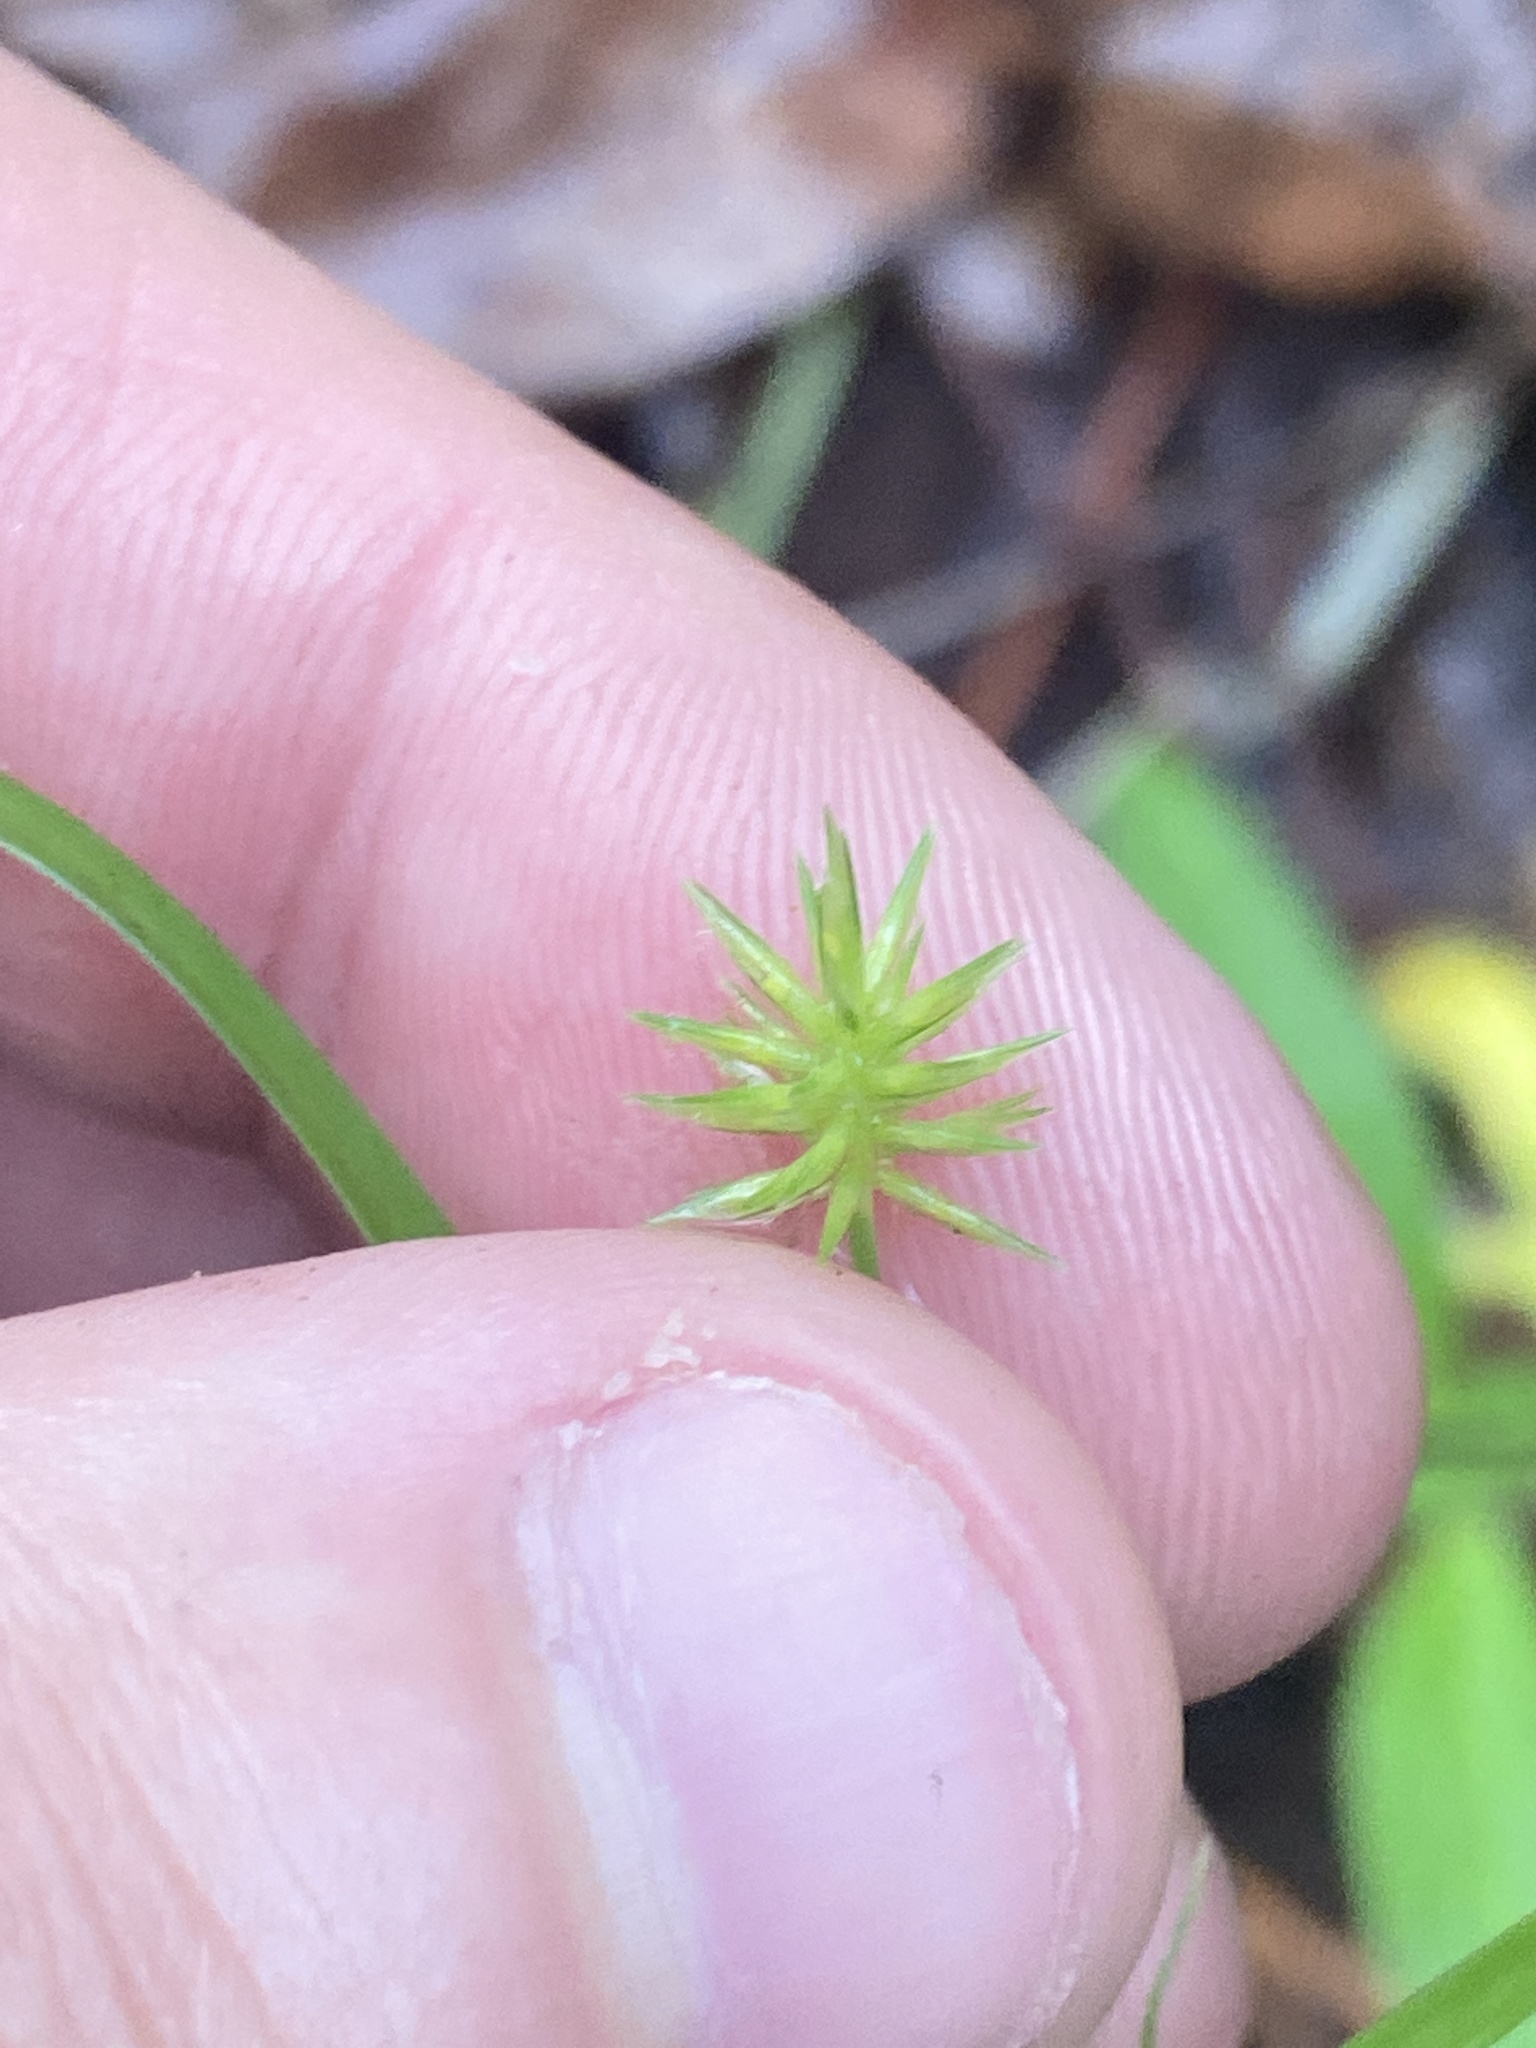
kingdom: Plantae
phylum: Tracheophyta
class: Liliopsida
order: Poales
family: Cyperaceae
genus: Cyperus
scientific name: Cyperus croceus
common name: Baldwin's flatsedge
